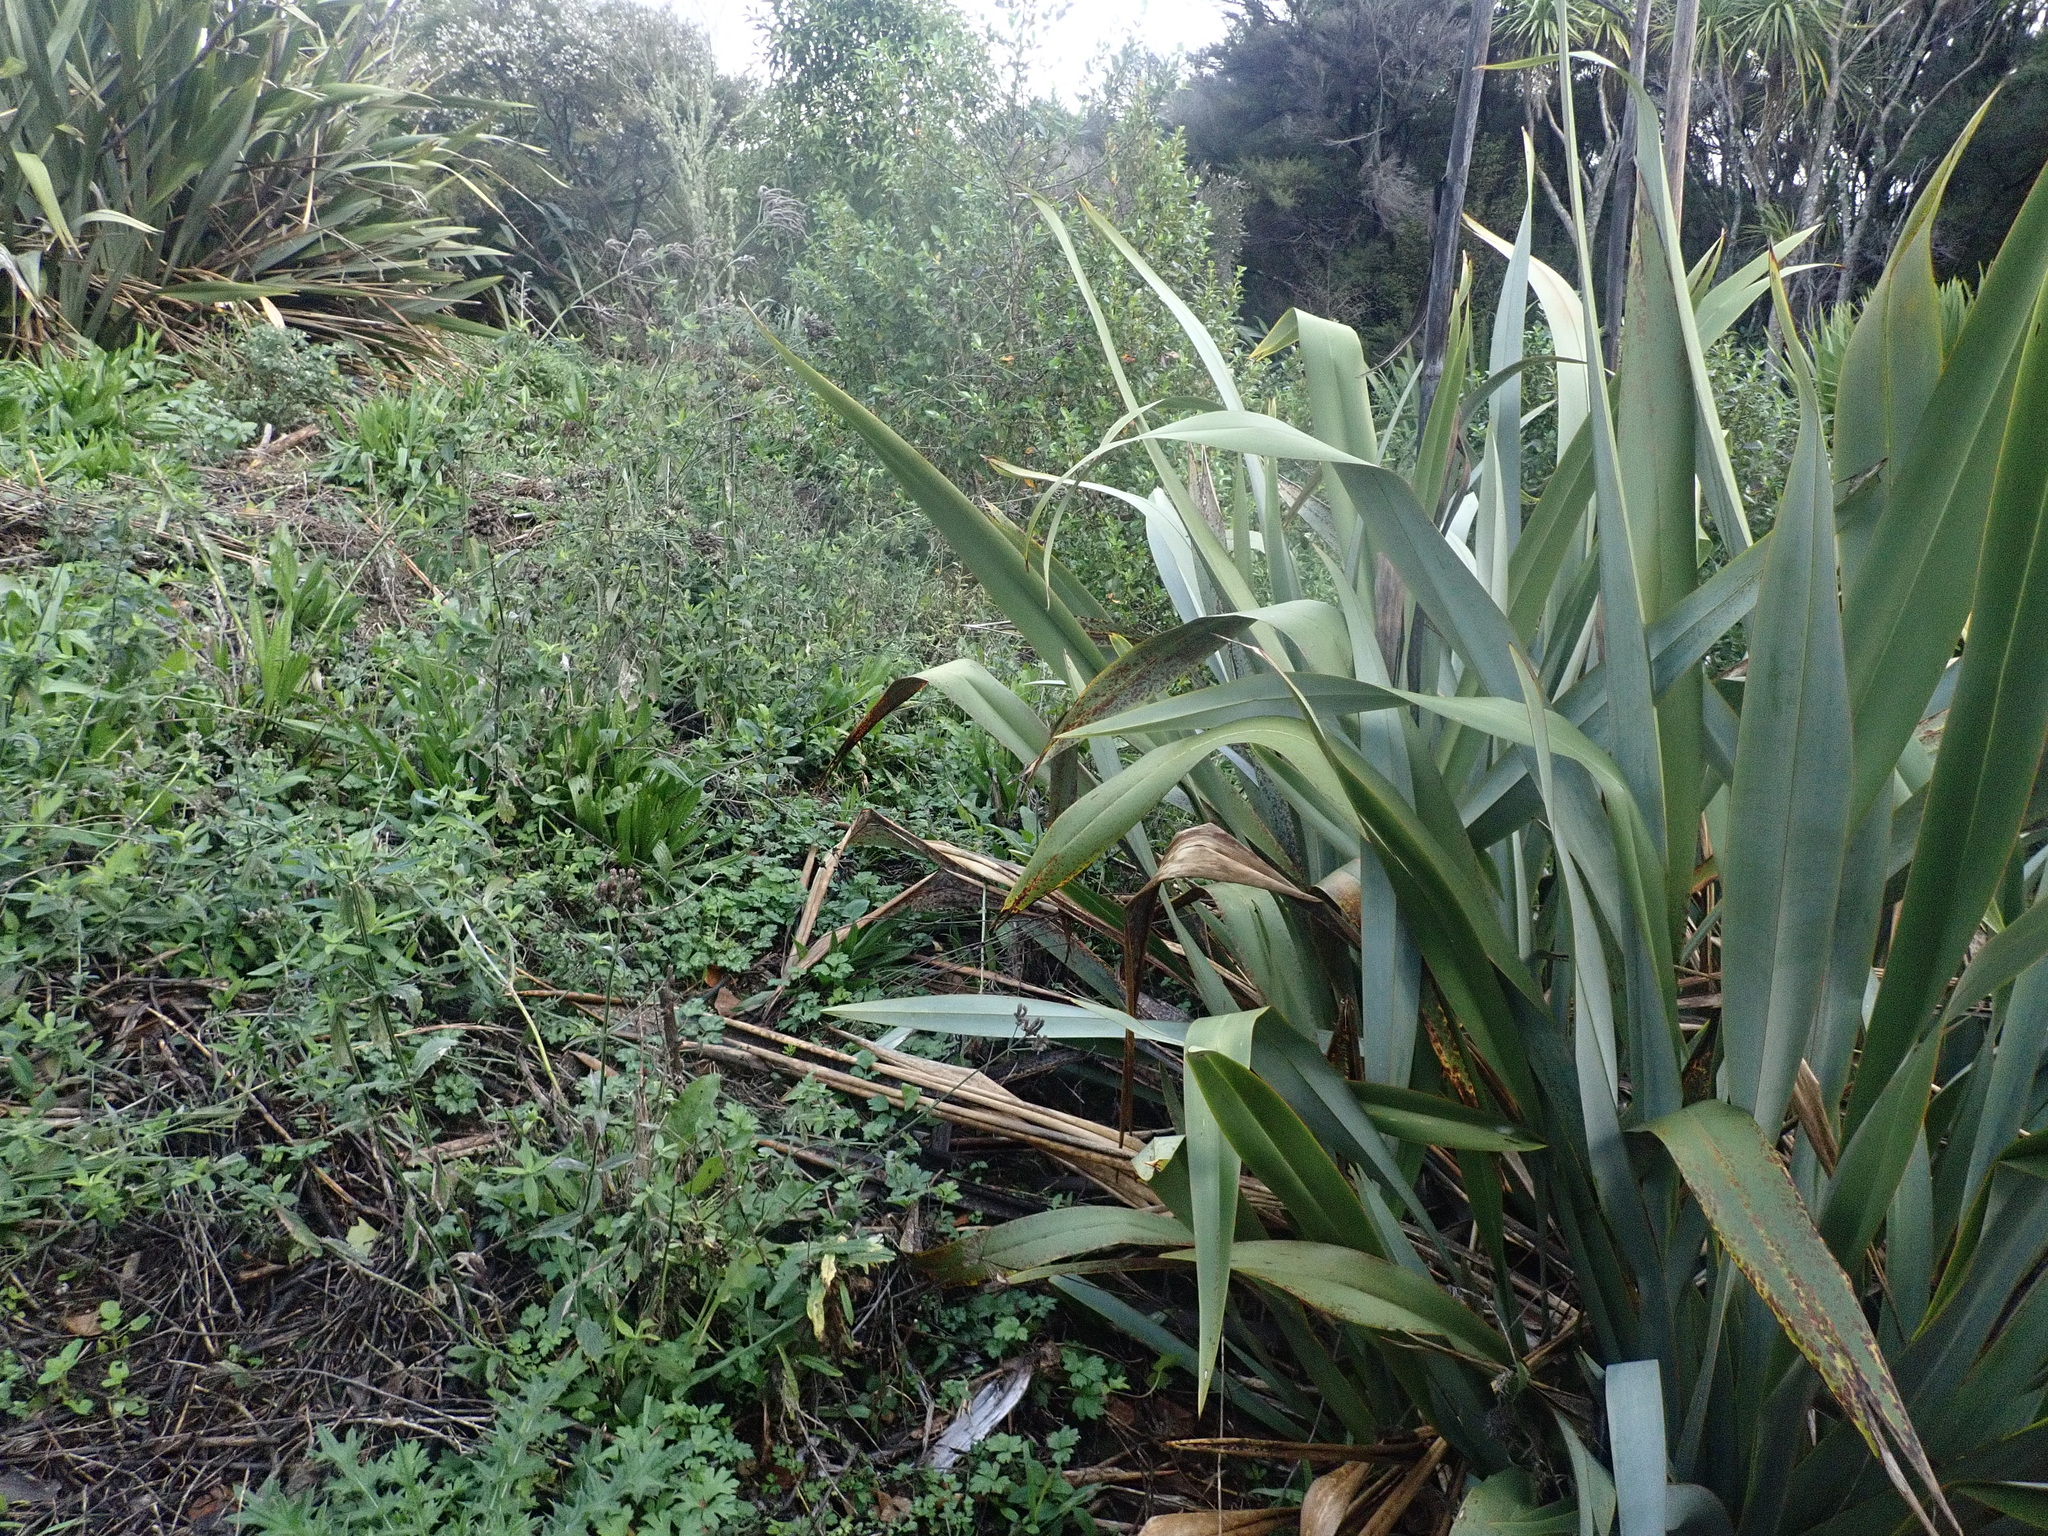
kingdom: Plantae
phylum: Tracheophyta
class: Liliopsida
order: Asparagales
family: Asphodelaceae
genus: Phormium
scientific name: Phormium tenax
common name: New zealand flax
